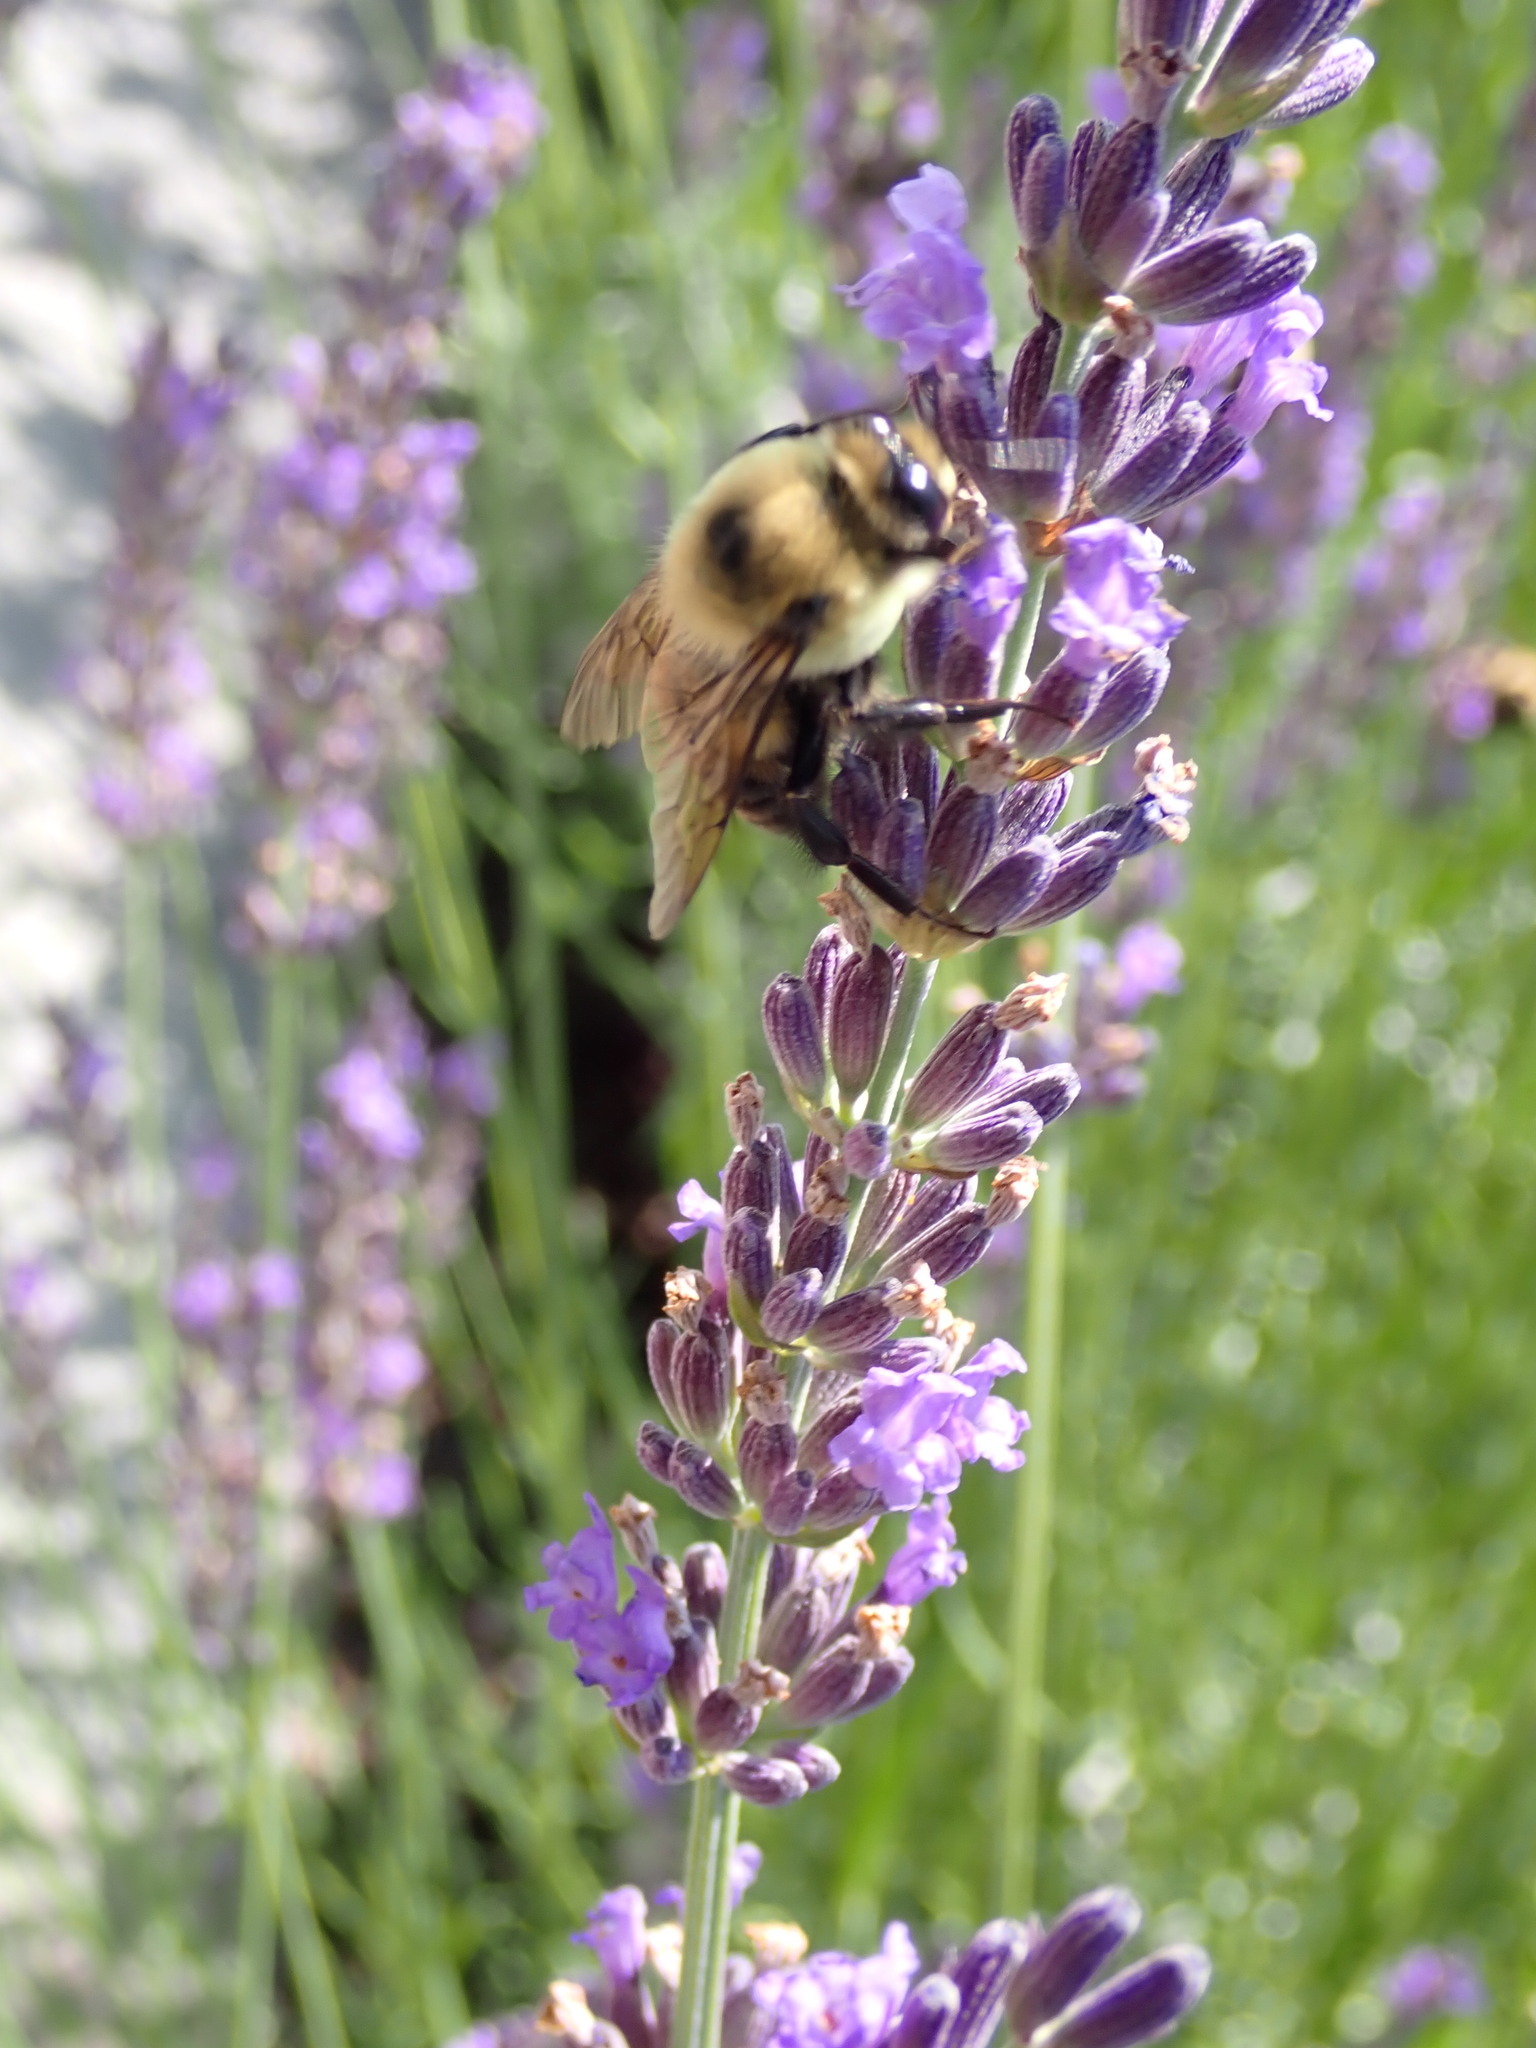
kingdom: Animalia
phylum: Arthropoda
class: Insecta
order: Hymenoptera
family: Apidae
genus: Bombus
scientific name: Bombus griseocollis
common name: Brown-belted bumble bee
